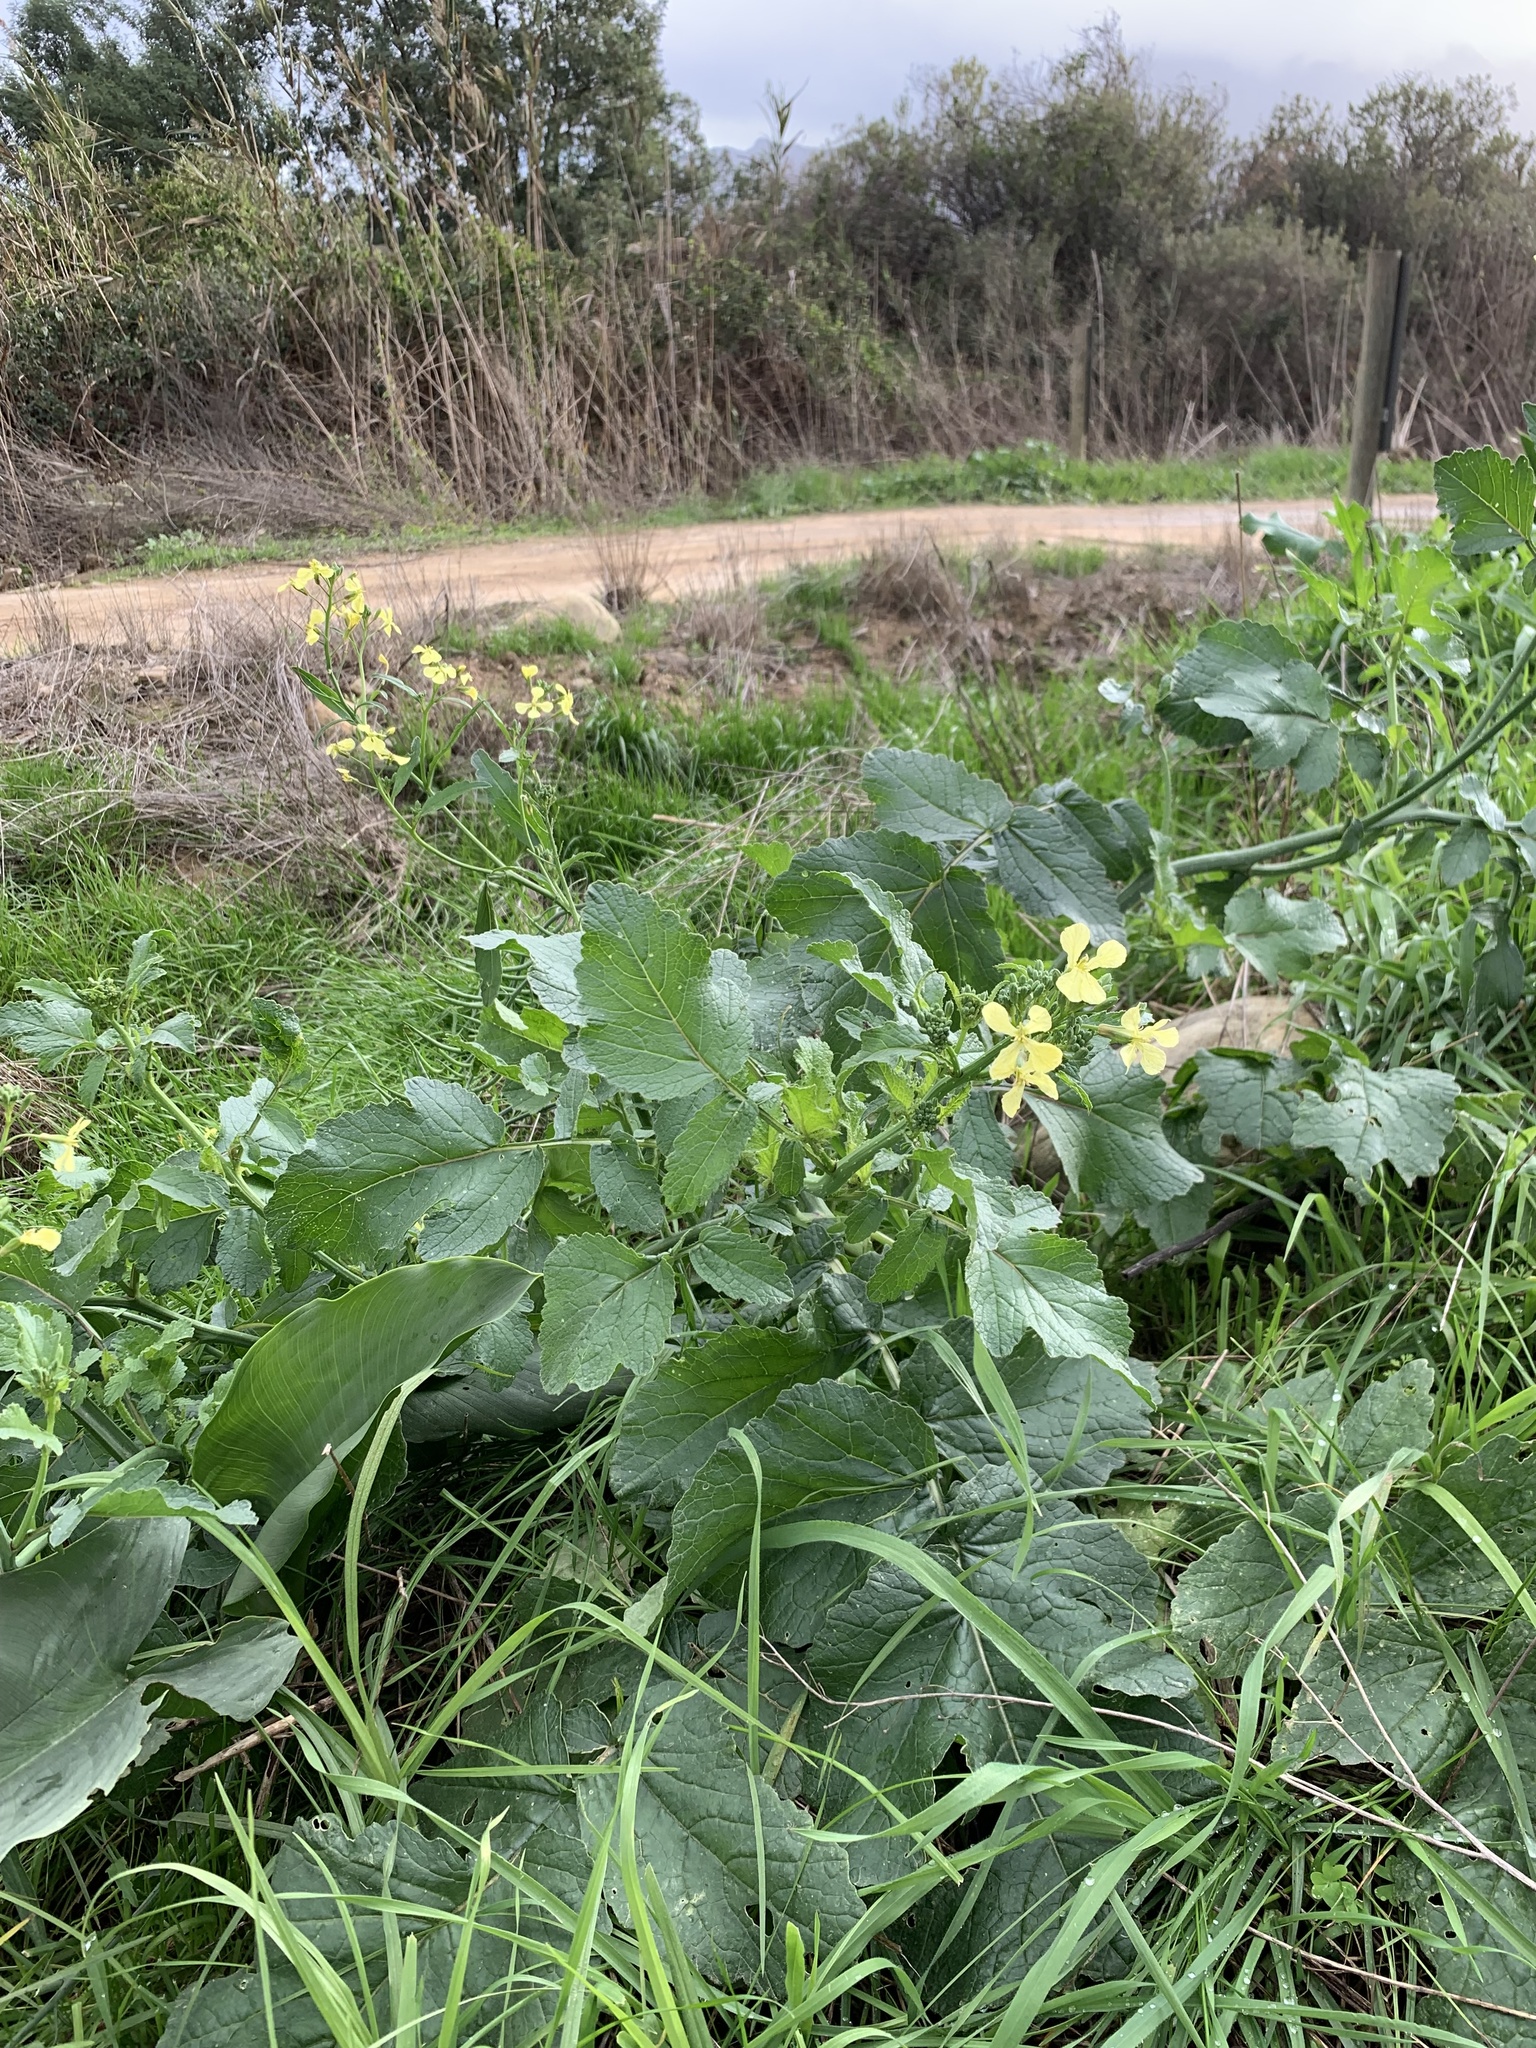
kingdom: Plantae
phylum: Tracheophyta
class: Magnoliopsida
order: Brassicales
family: Brassicaceae
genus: Raphanus
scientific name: Raphanus raphanistrum
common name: Wild radish
